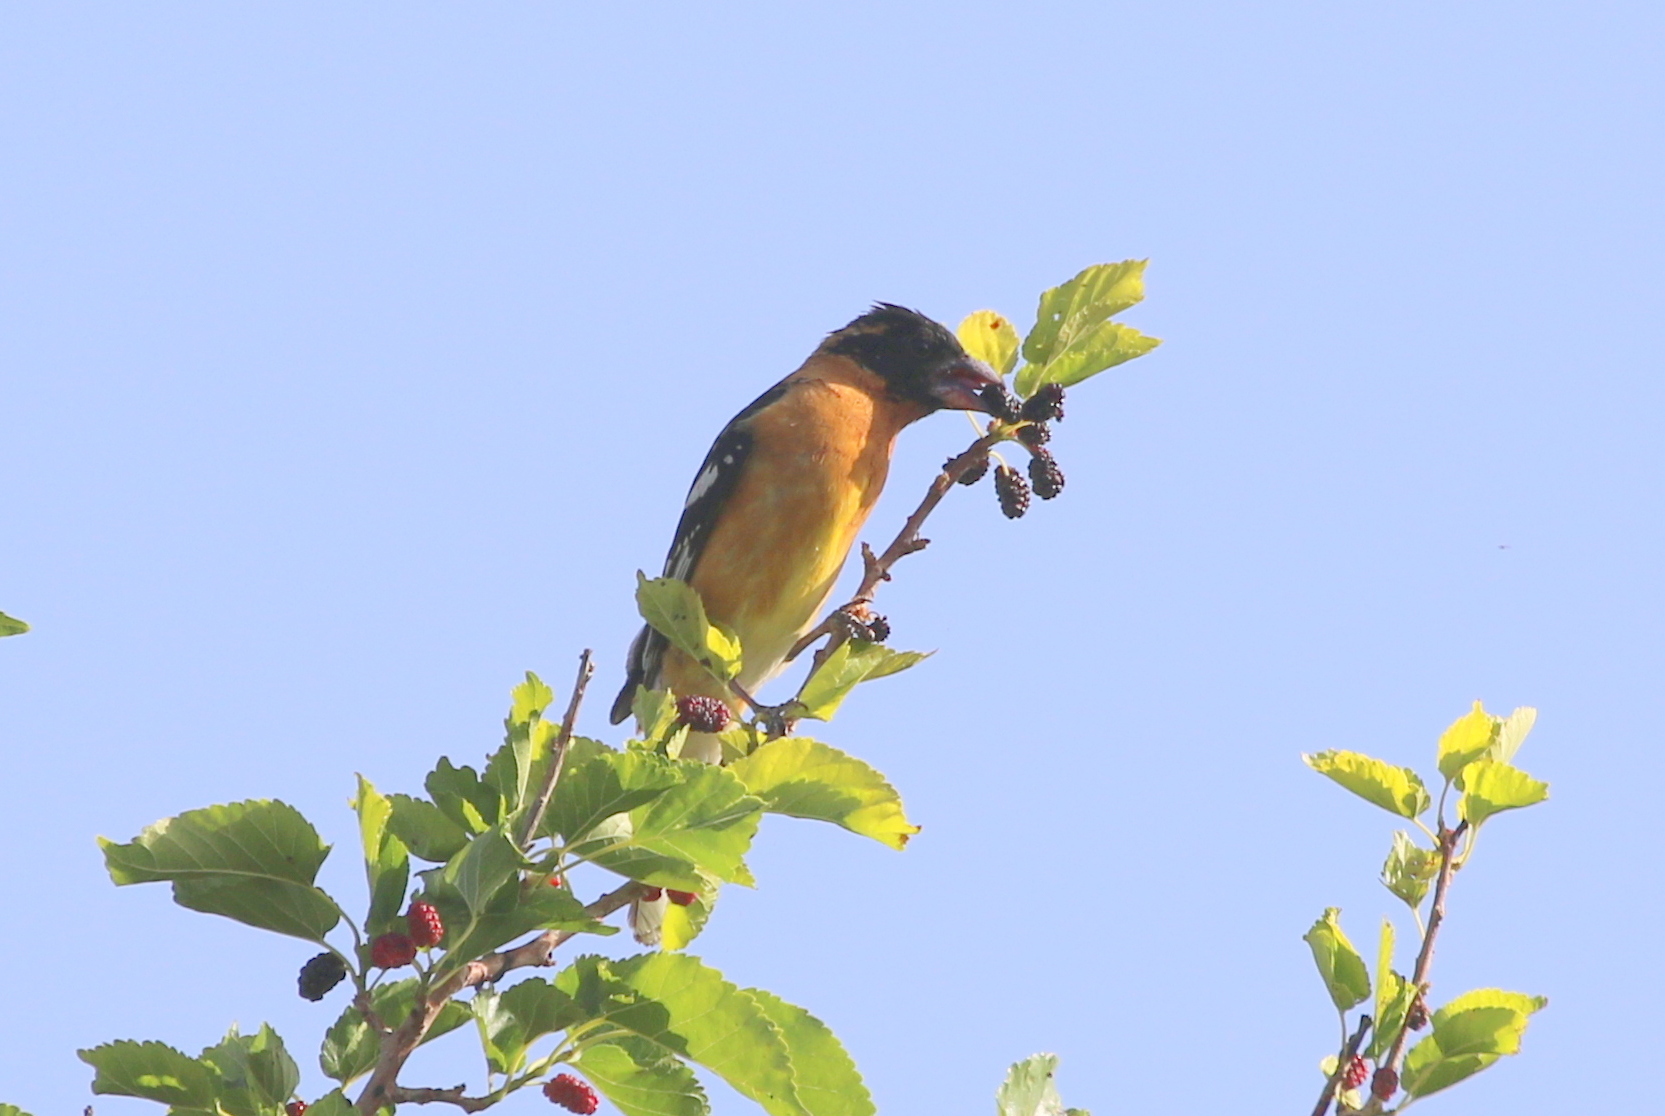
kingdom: Animalia
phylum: Chordata
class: Aves
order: Passeriformes
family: Cardinalidae
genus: Pheucticus
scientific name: Pheucticus melanocephalus
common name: Black-headed grosbeak
